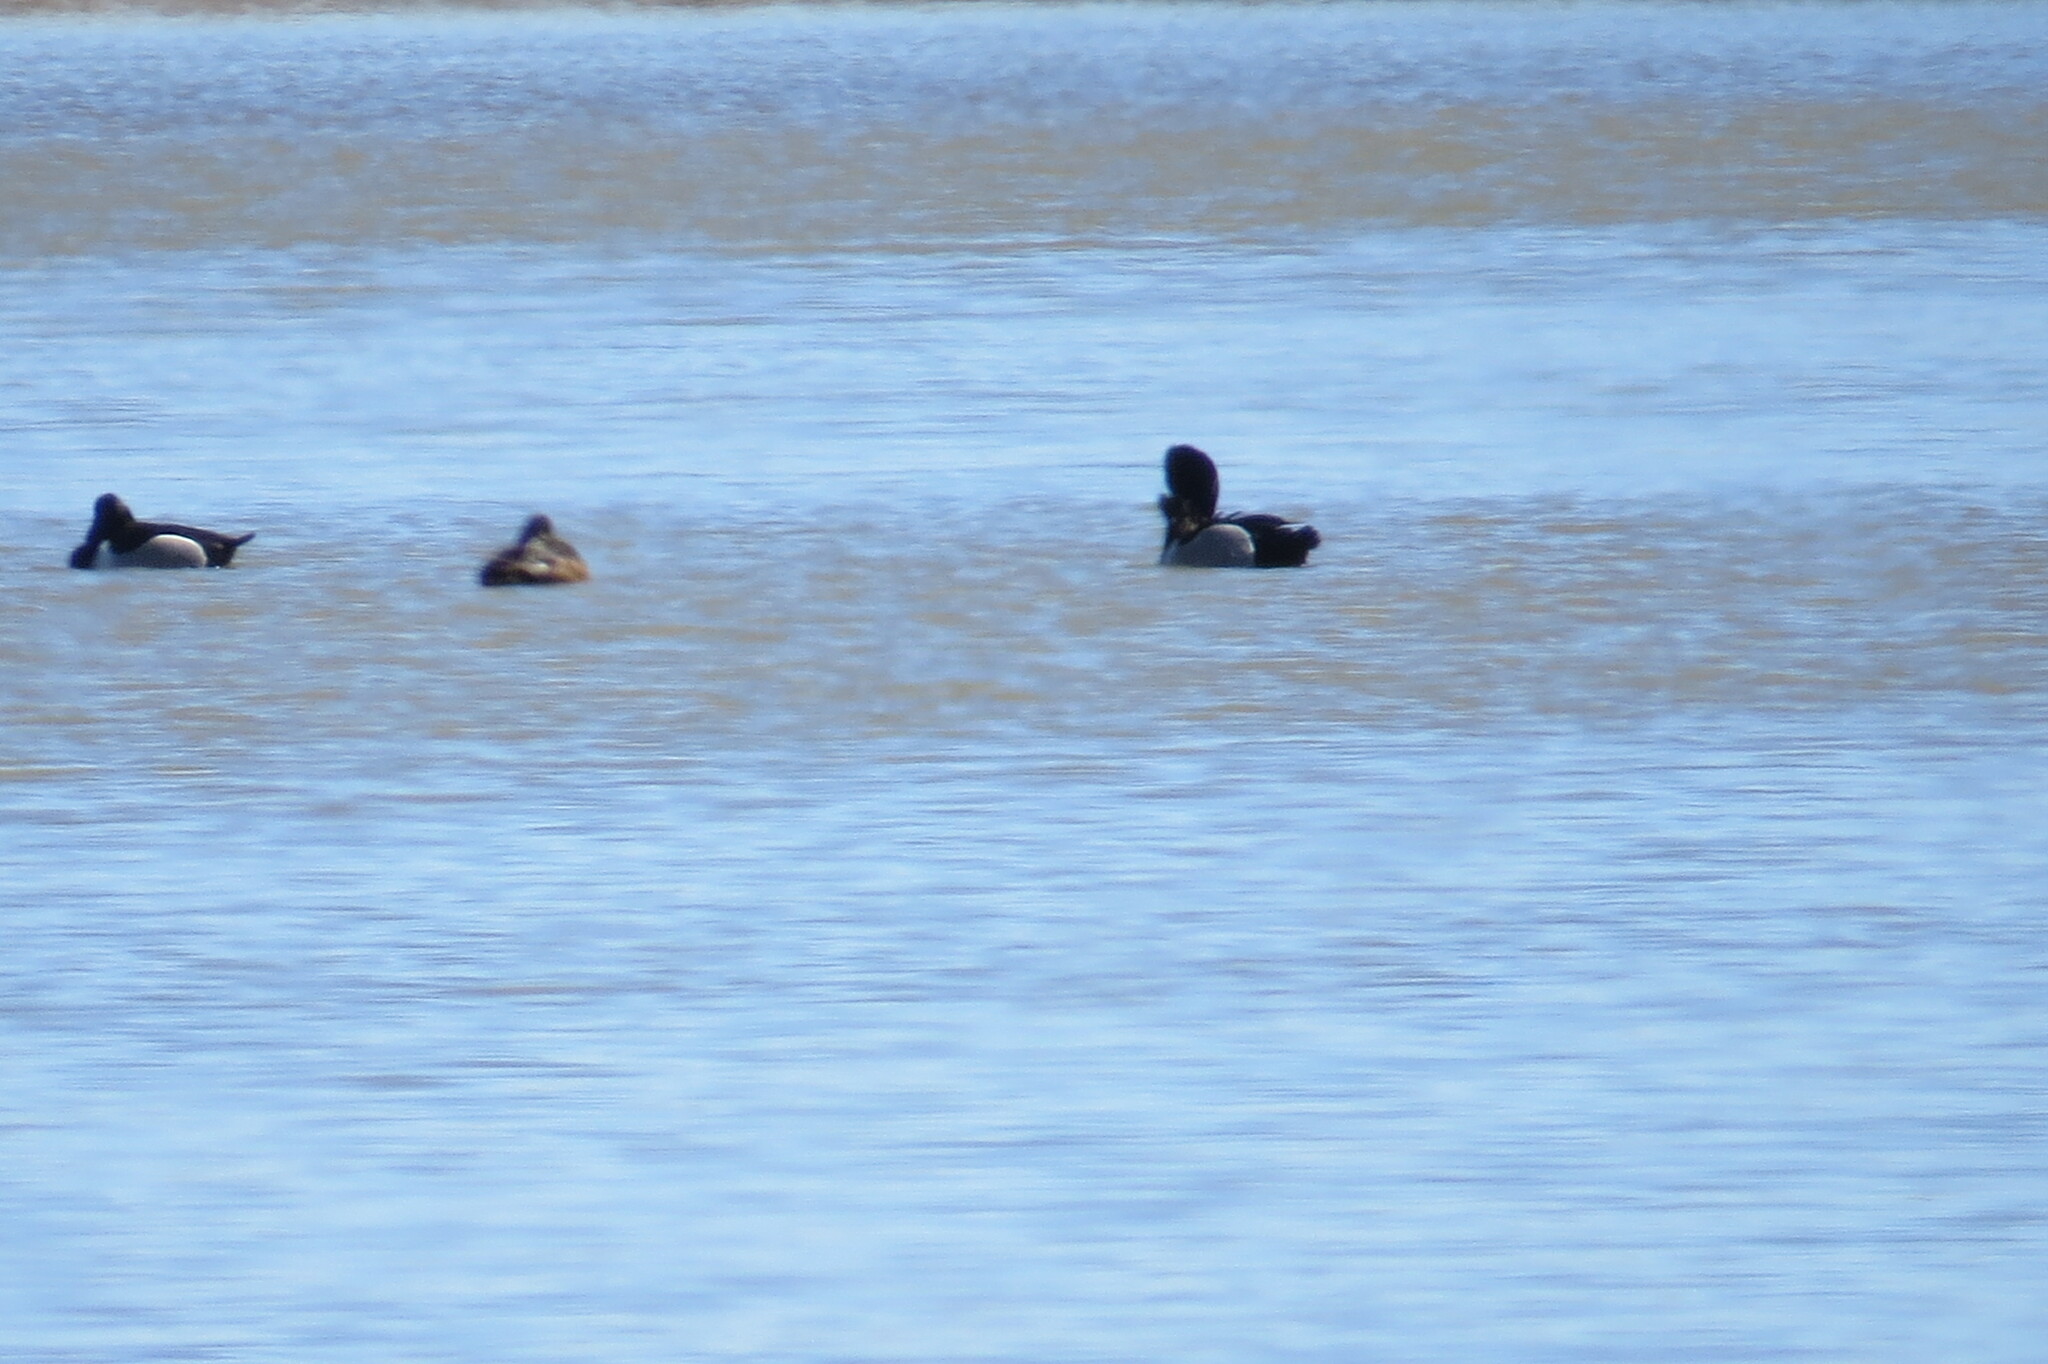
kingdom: Animalia
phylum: Chordata
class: Aves
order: Anseriformes
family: Anatidae
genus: Aythya
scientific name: Aythya collaris
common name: Ring-necked duck
